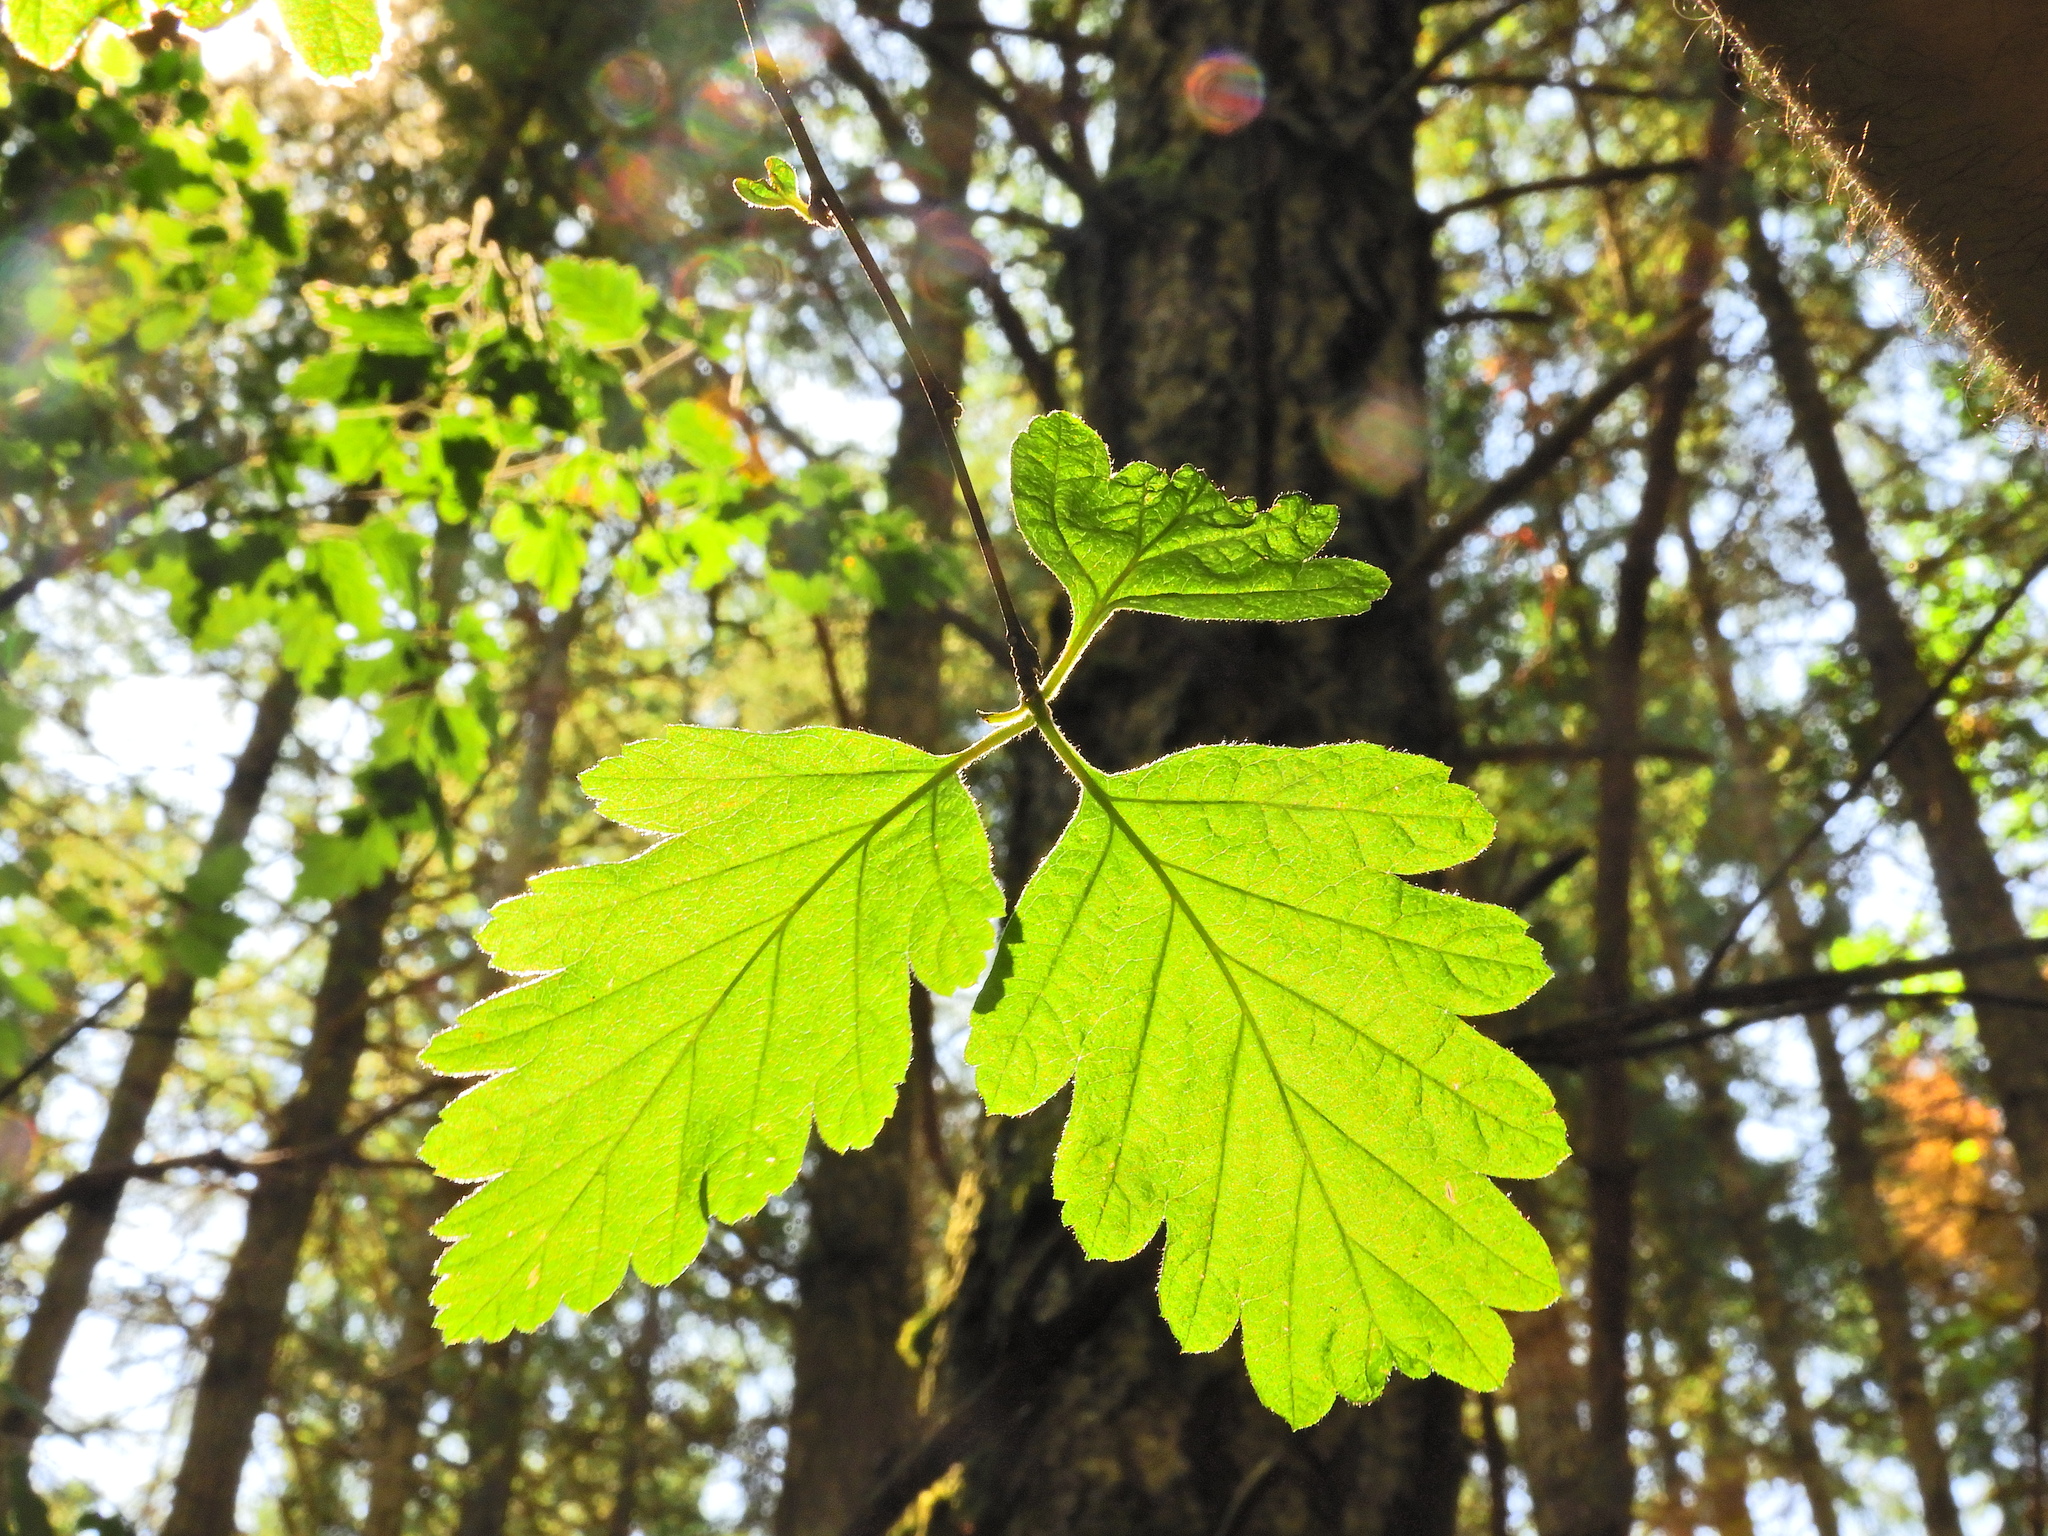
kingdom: Plantae
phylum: Tracheophyta
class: Magnoliopsida
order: Rosales
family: Rosaceae
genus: Holodiscus
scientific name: Holodiscus discolor
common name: Oceanspray
